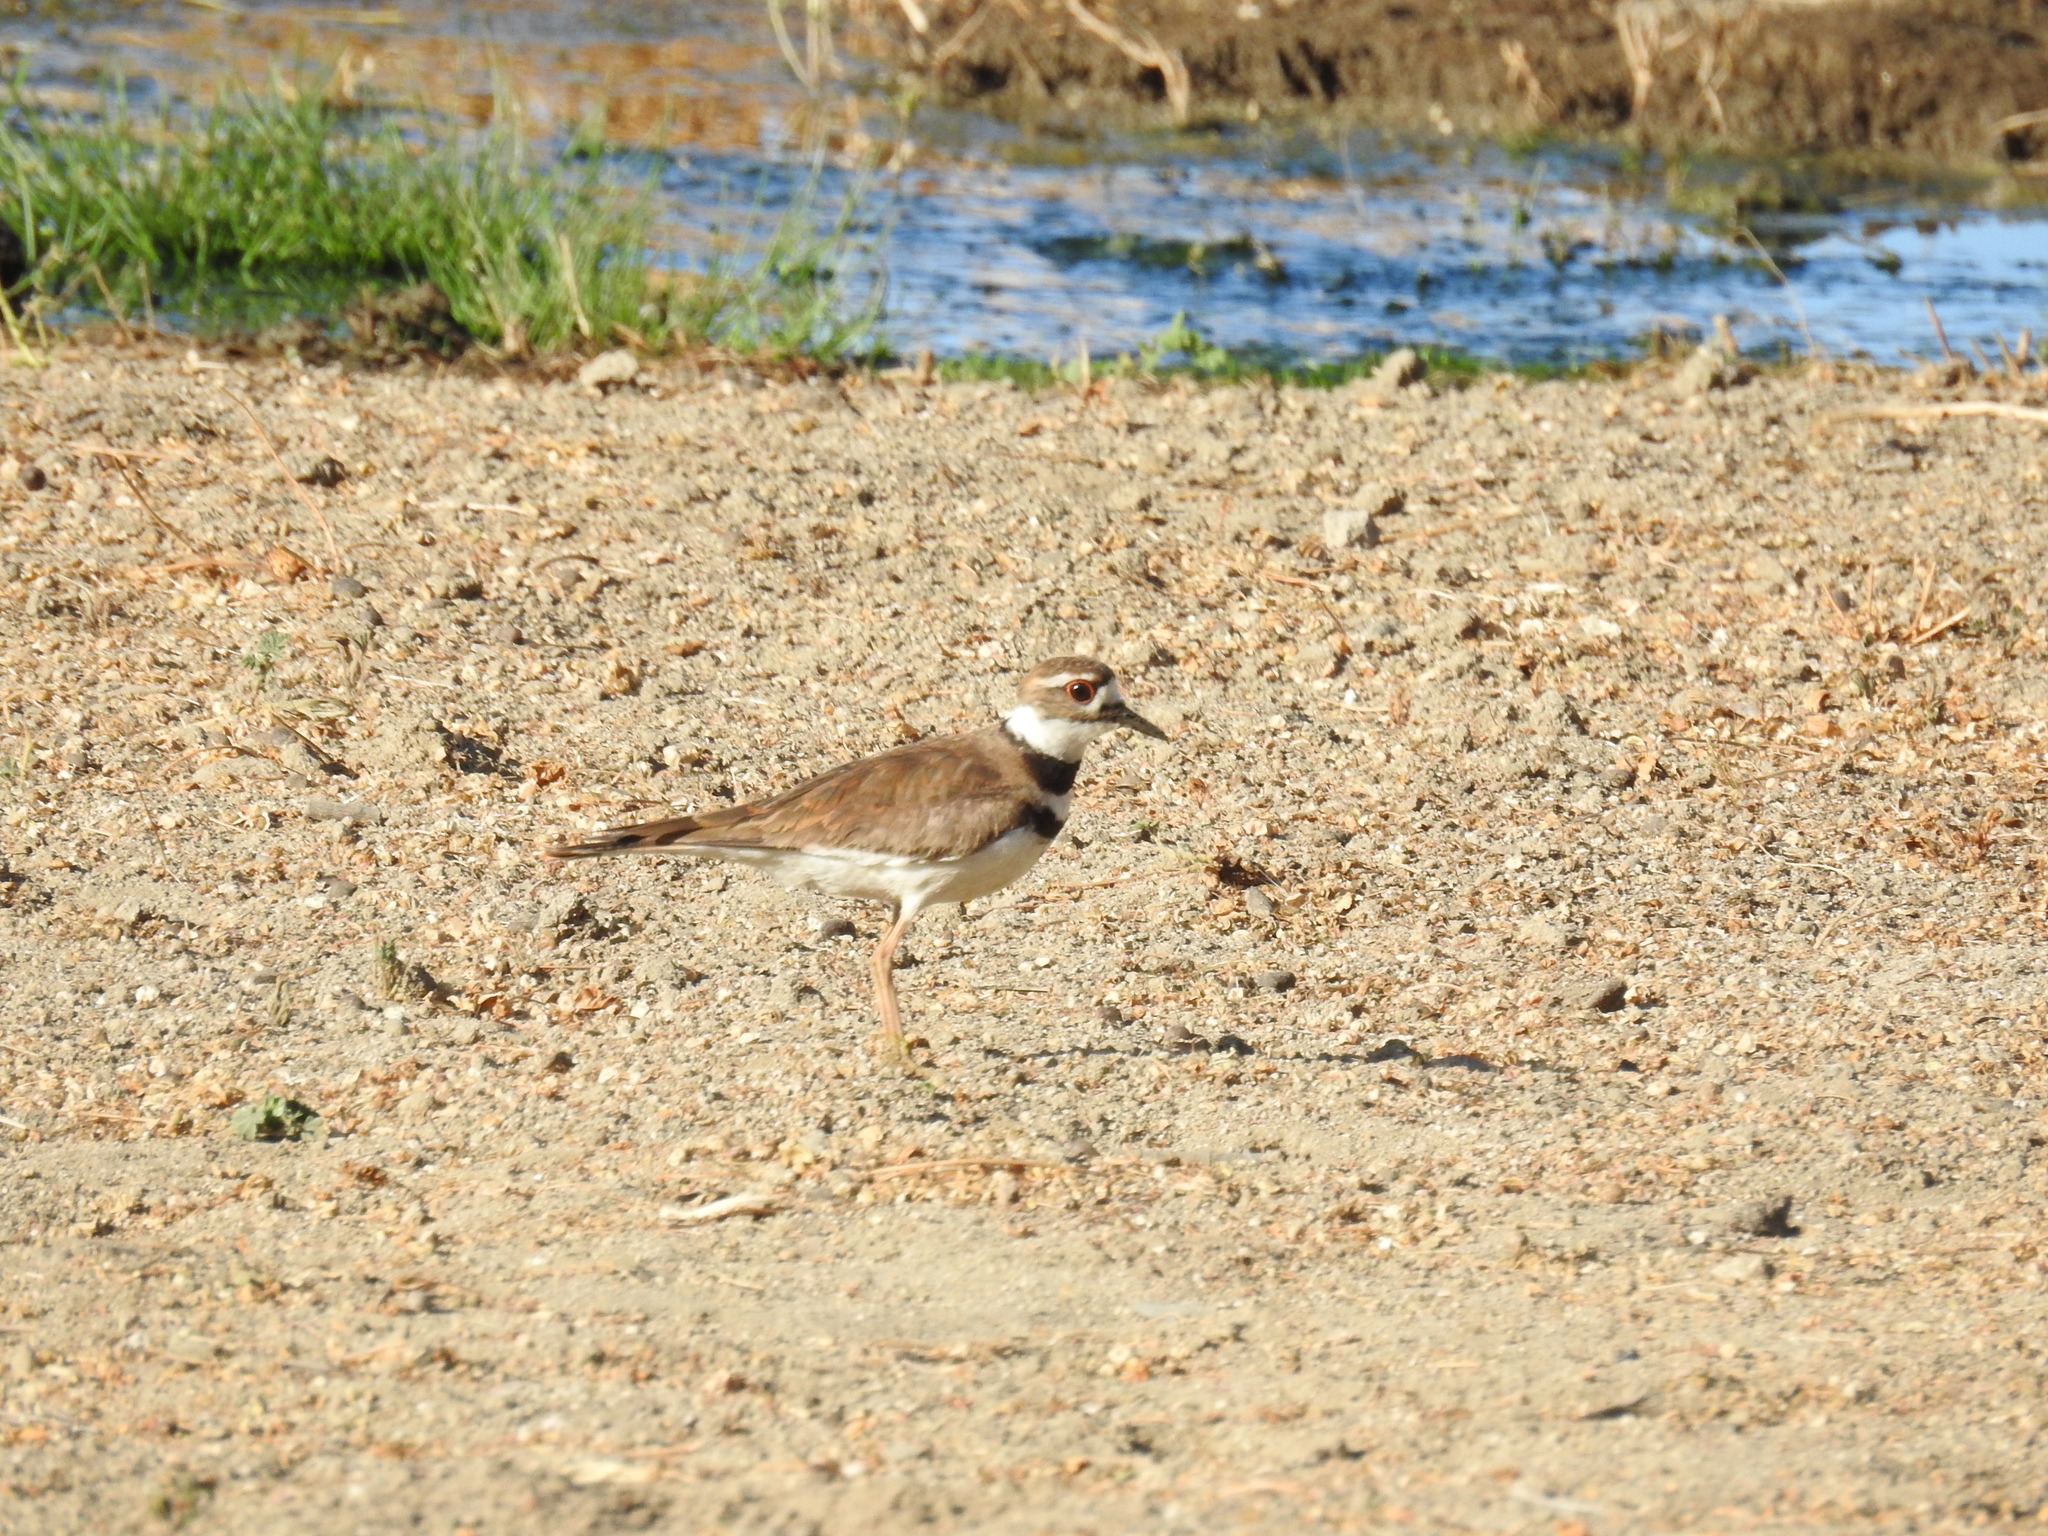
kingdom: Animalia
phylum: Chordata
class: Aves
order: Charadriiformes
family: Charadriidae
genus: Charadrius
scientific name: Charadrius vociferus
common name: Killdeer
